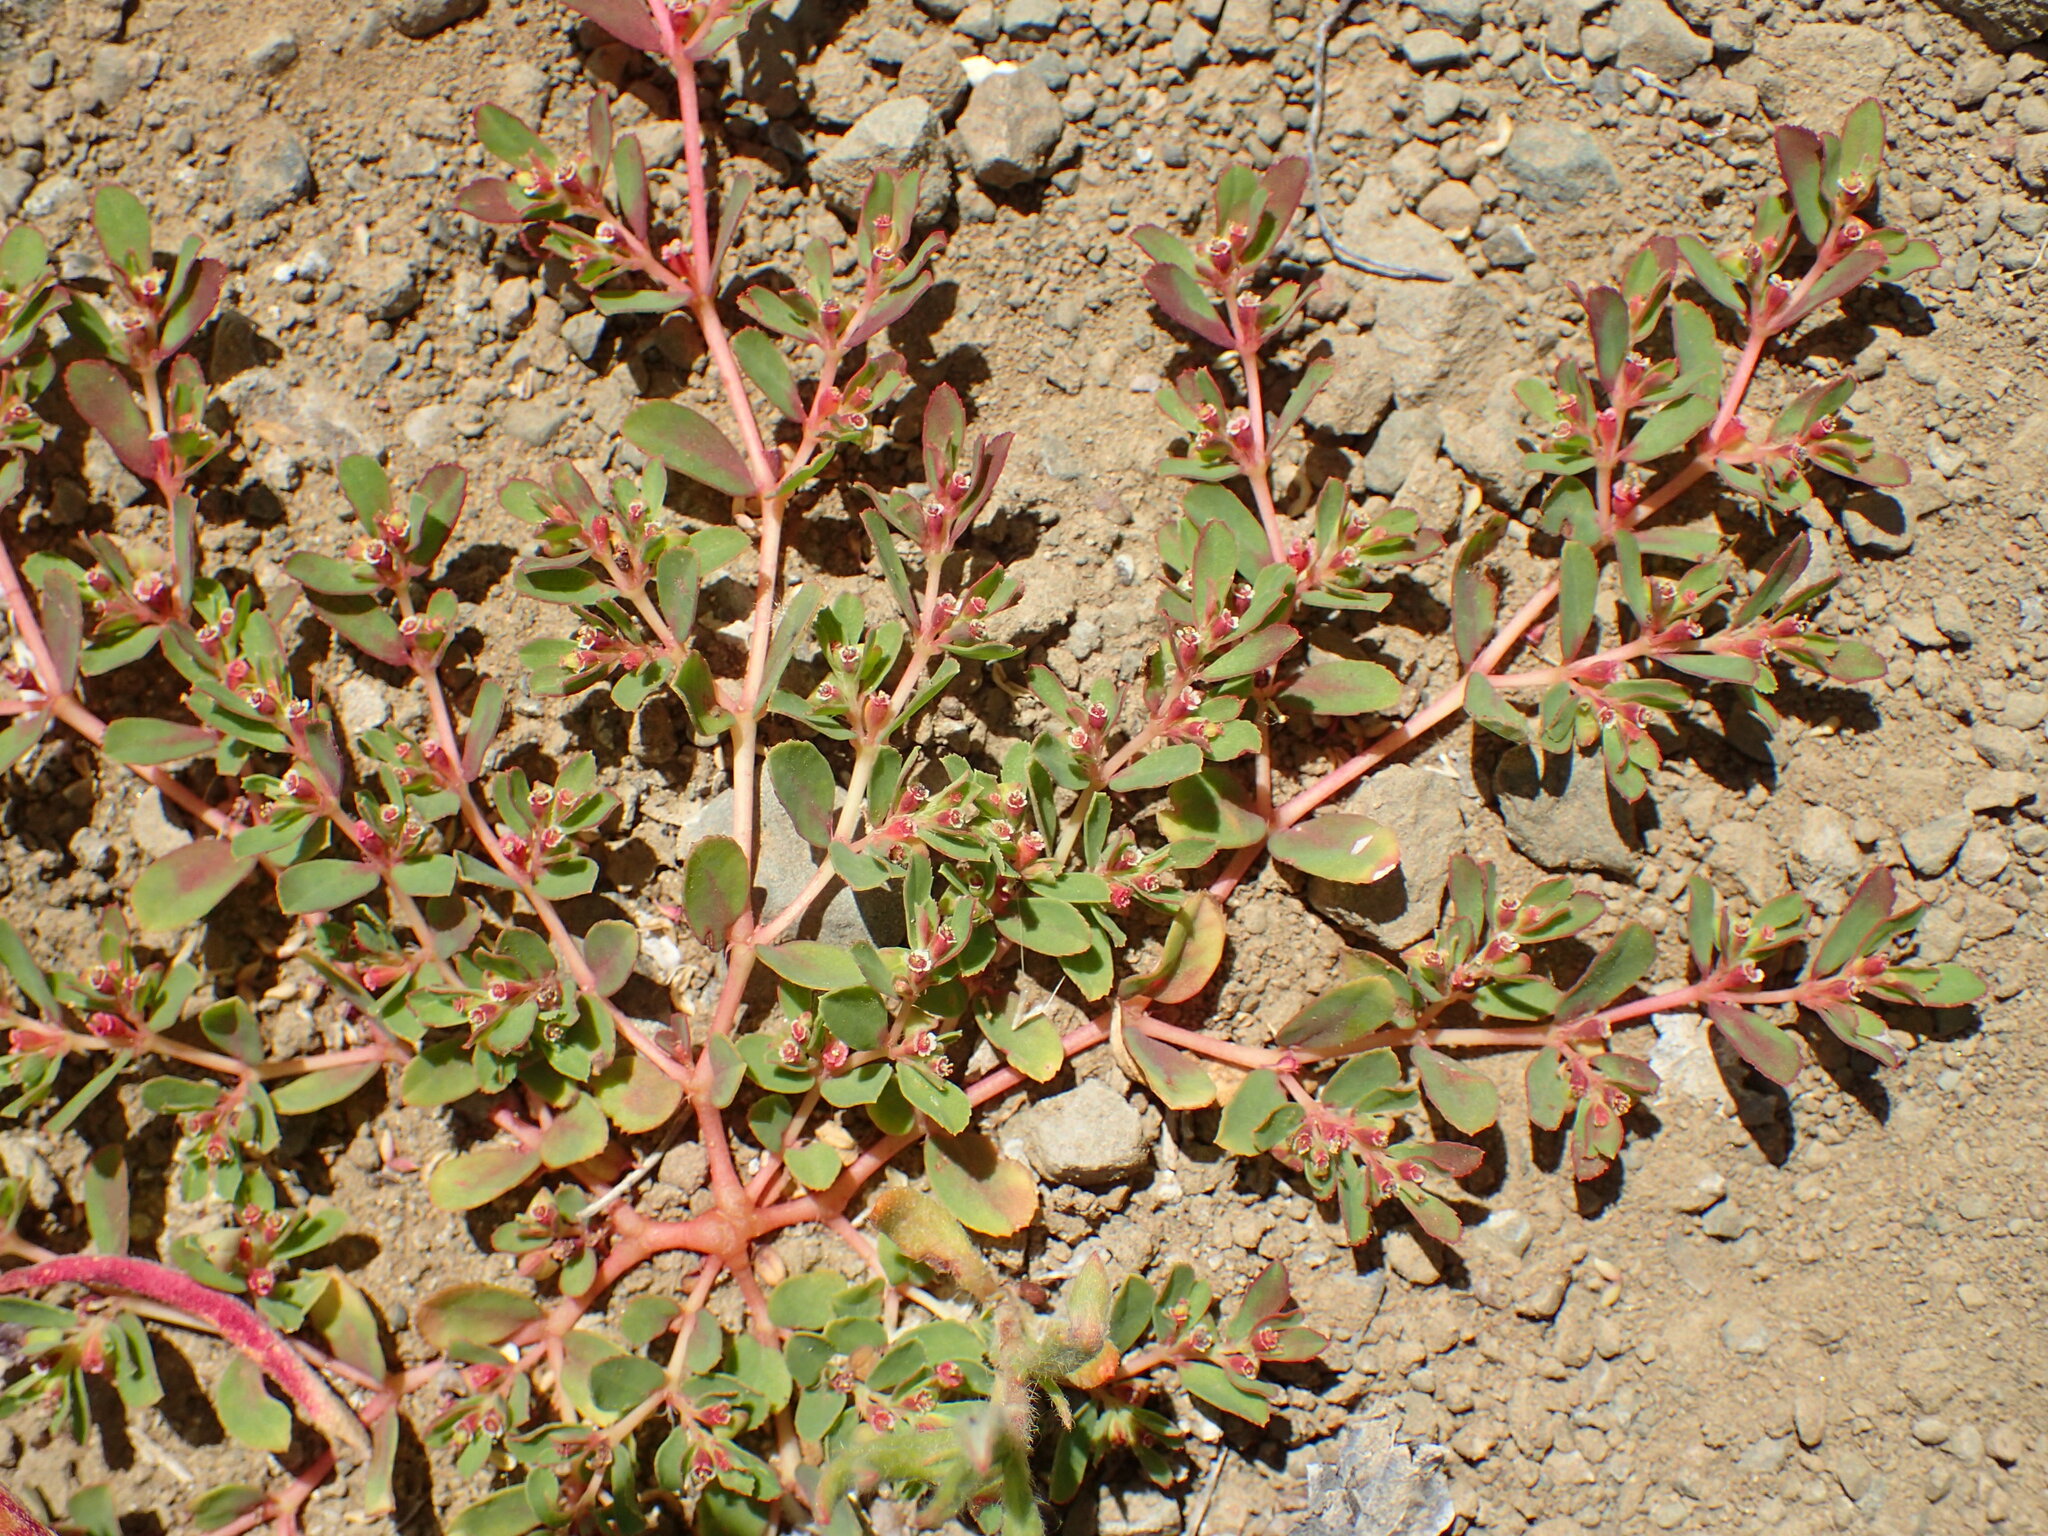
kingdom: Plantae
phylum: Tracheophyta
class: Magnoliopsida
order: Malpighiales
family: Euphorbiaceae
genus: Euphorbia
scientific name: Euphorbia serpillifolia
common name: Thyme-leaf spurge
